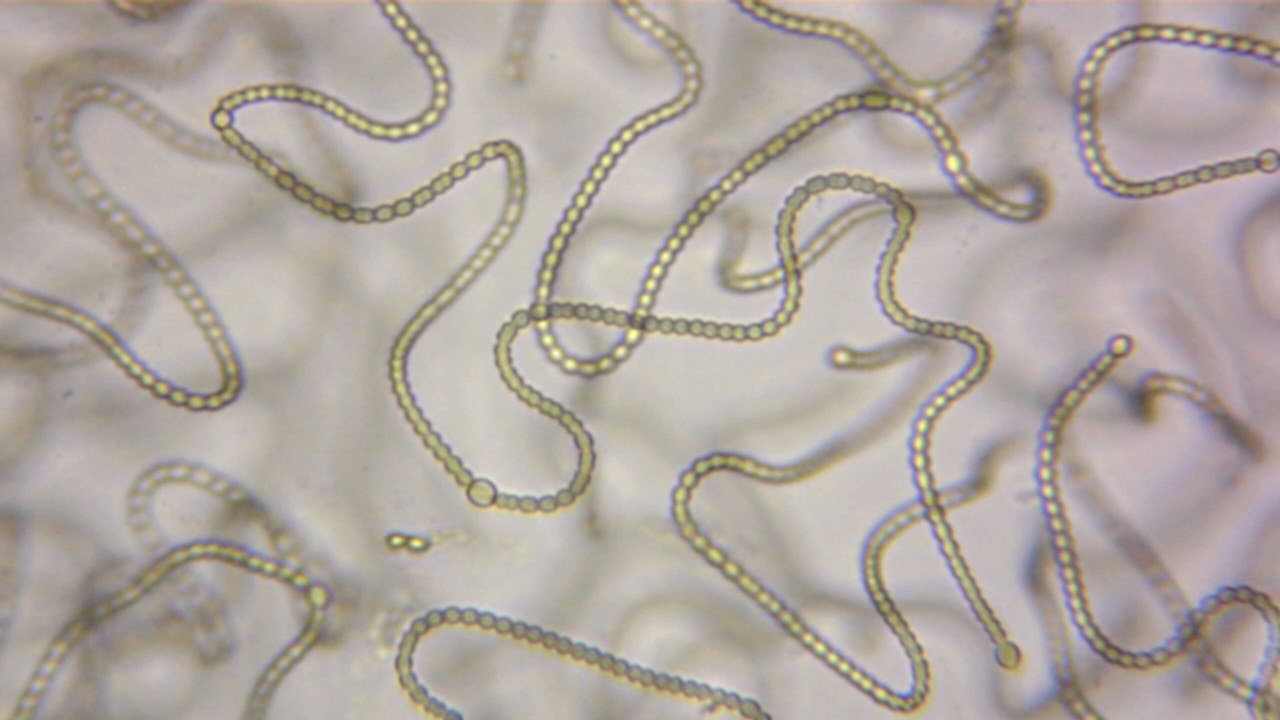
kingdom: Bacteria
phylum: Cyanobacteria
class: Cyanobacteriia
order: Cyanobacteriales
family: Nostocaceae
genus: Nostoc
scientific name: Nostoc commune
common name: Star jelly
